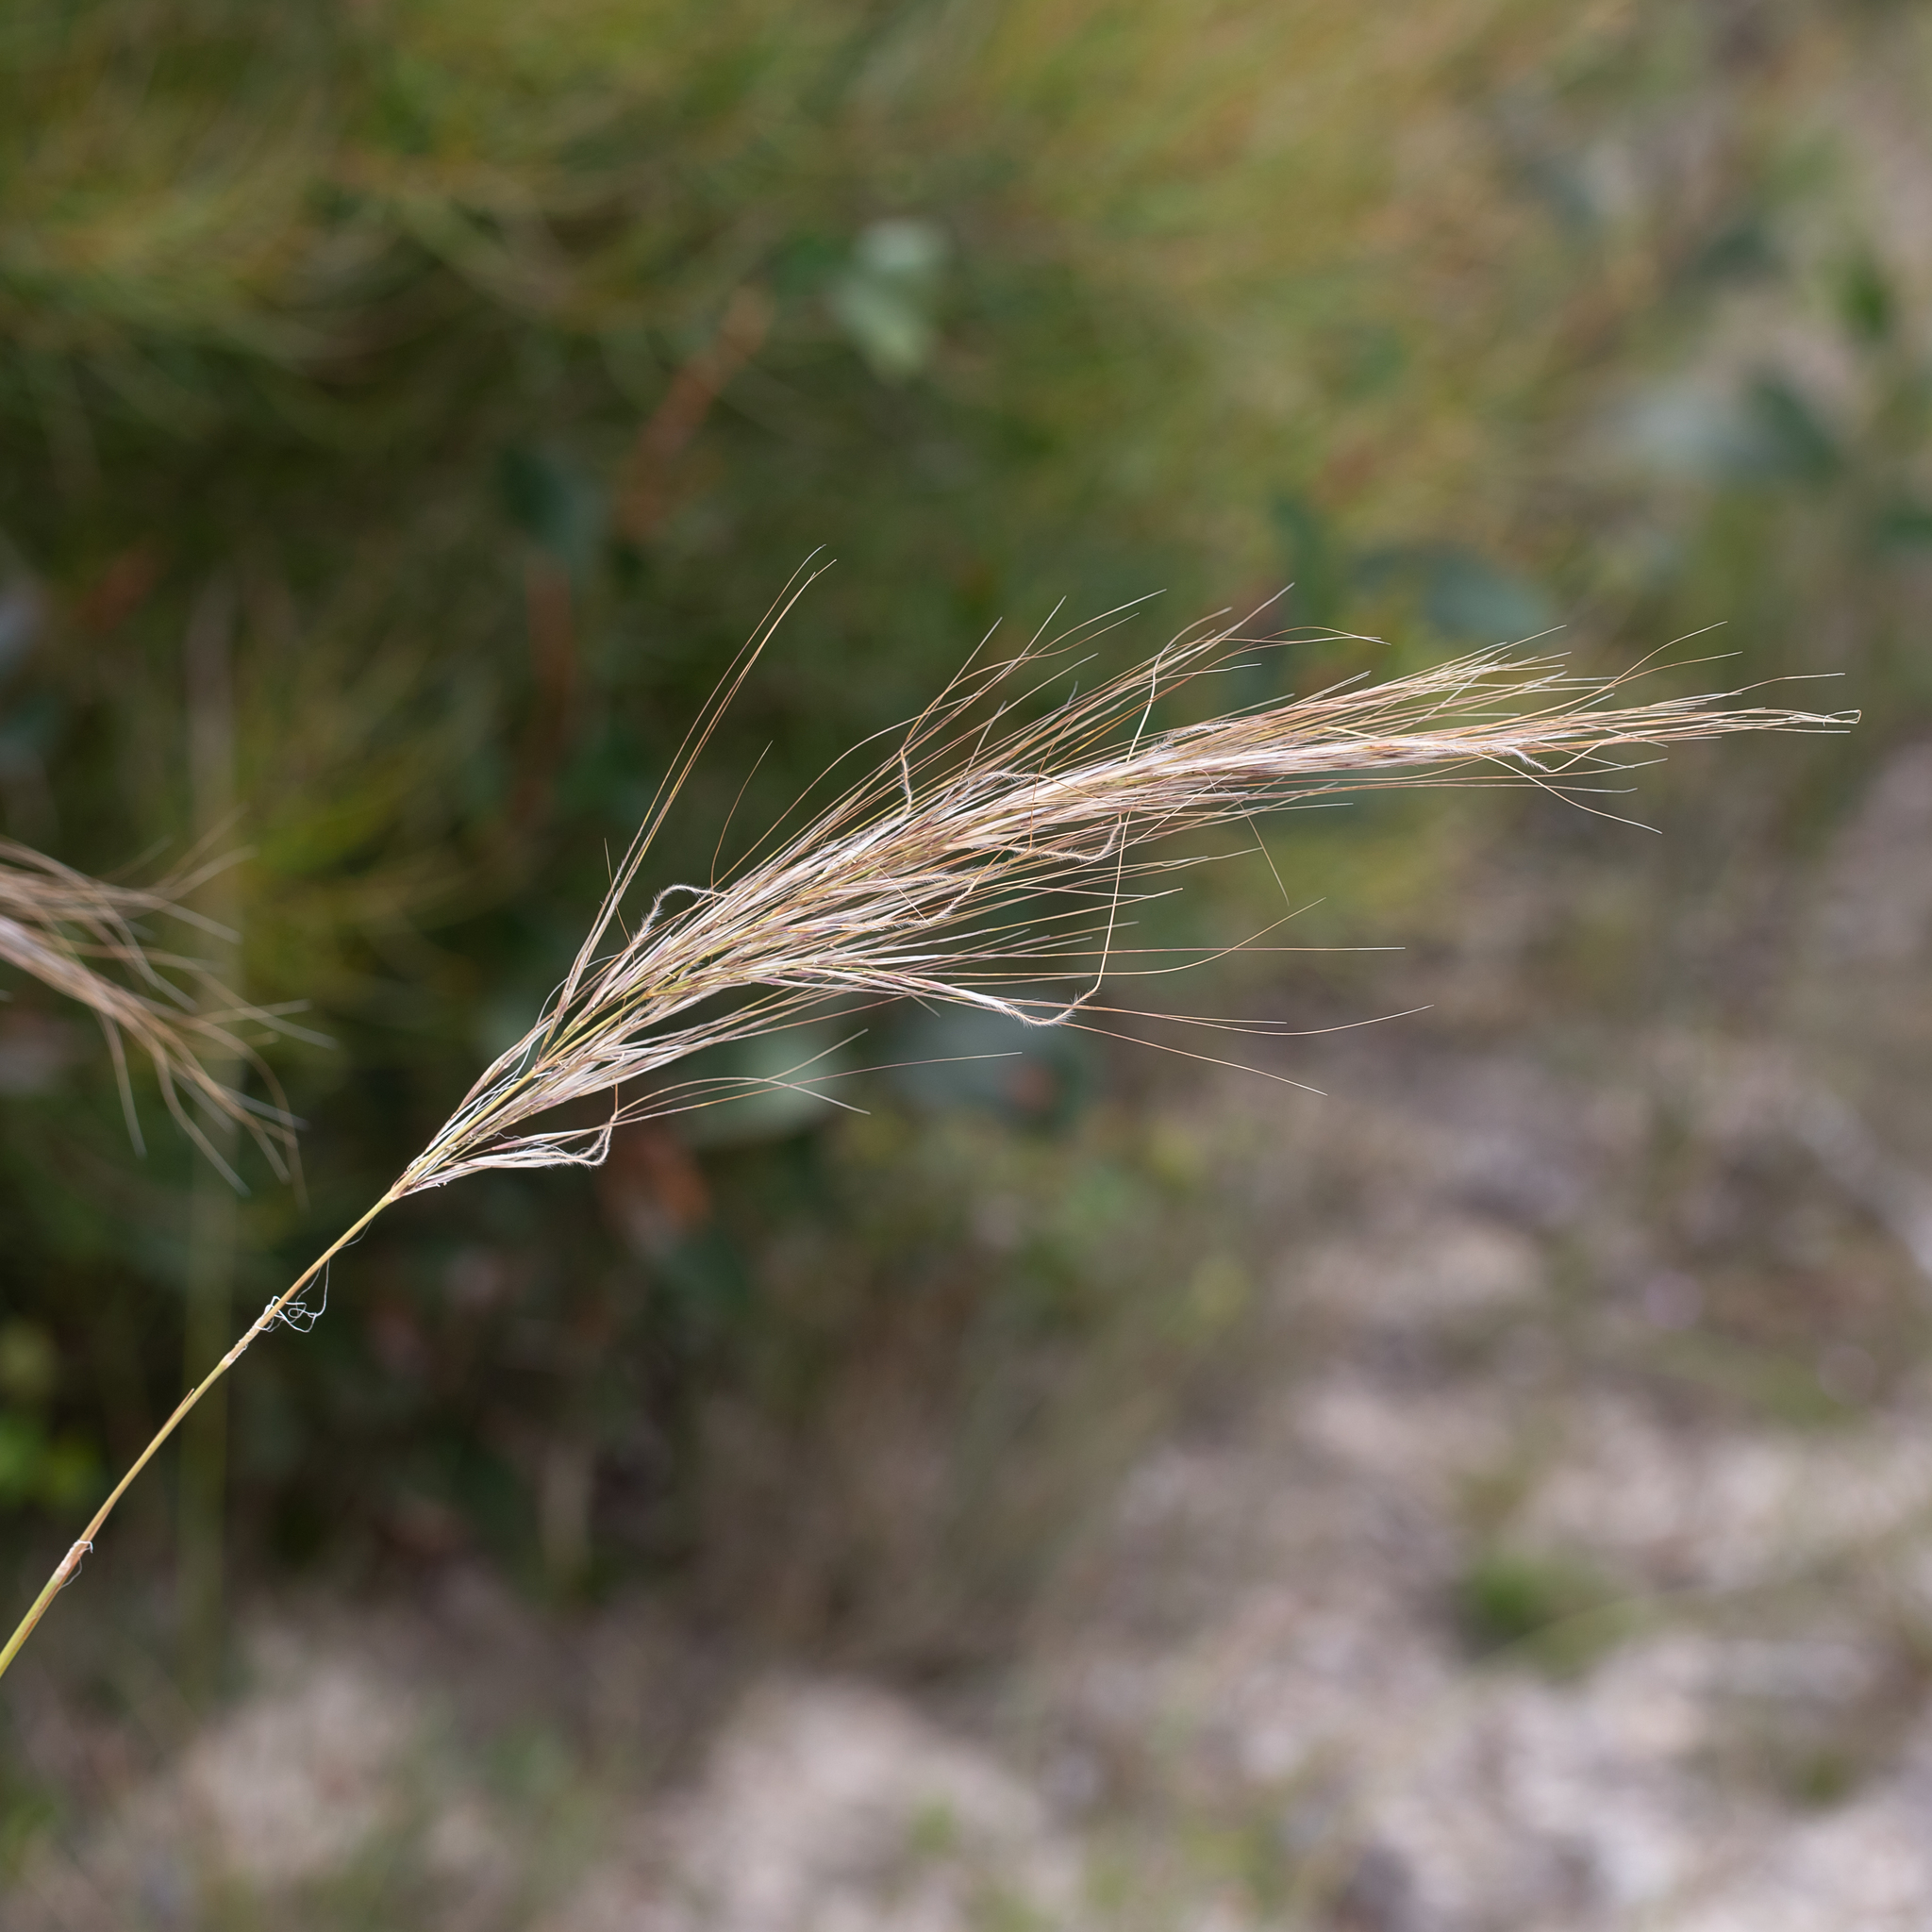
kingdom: Plantae
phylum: Tracheophyta
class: Liliopsida
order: Poales
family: Poaceae
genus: Austrostipa
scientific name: Austrostipa mollis
